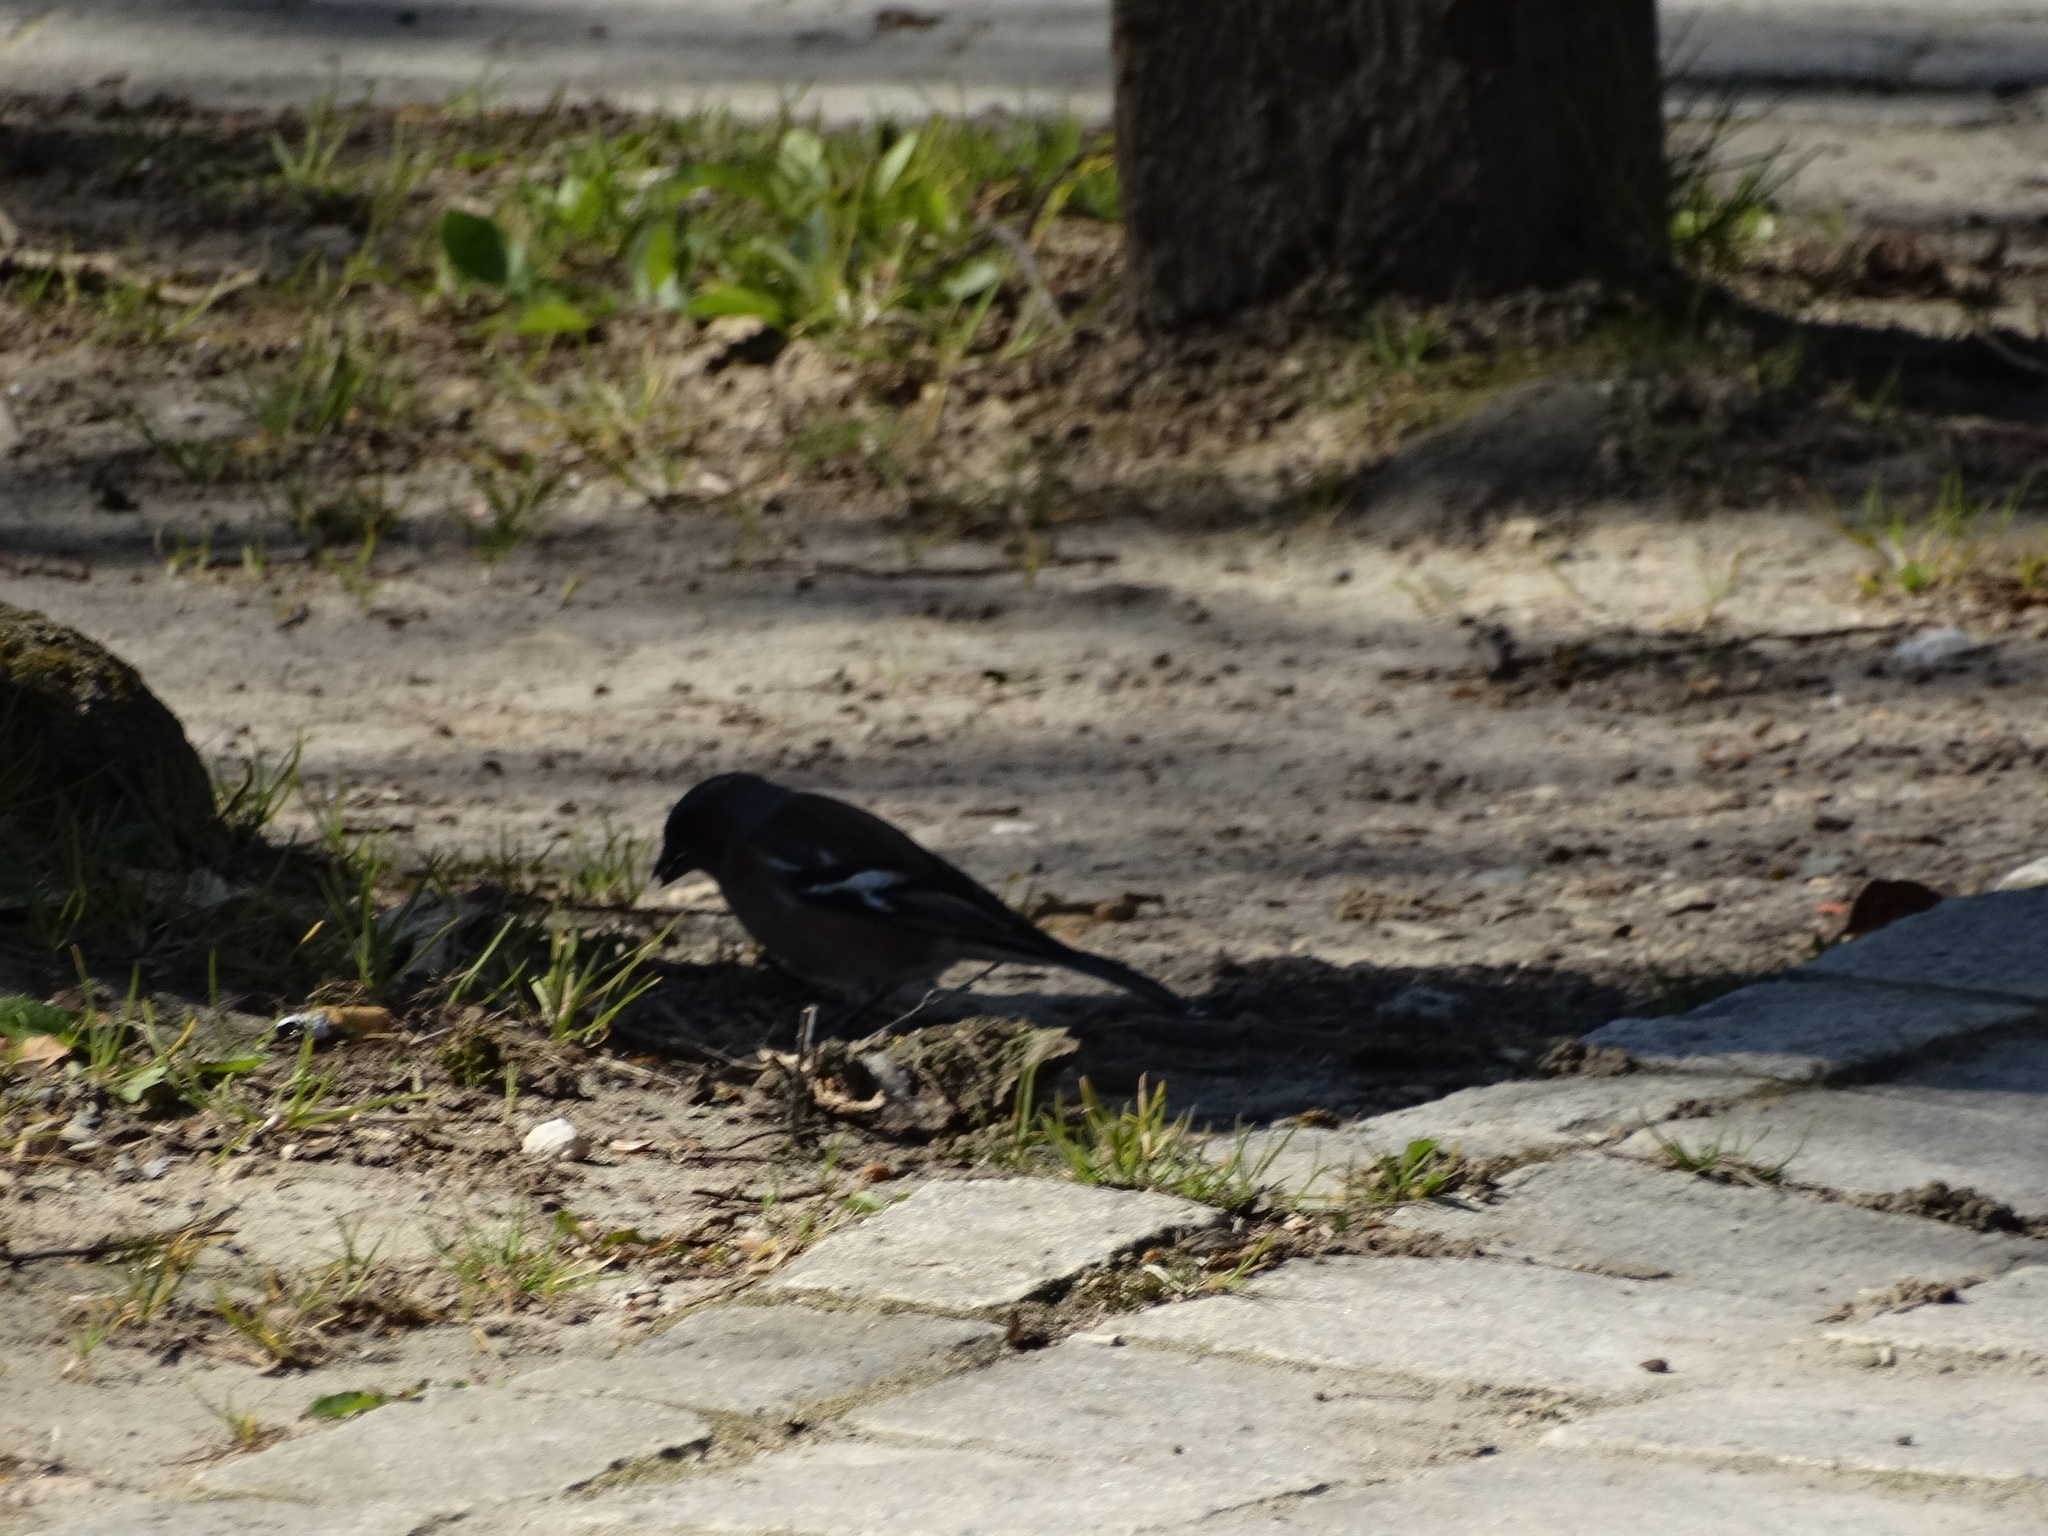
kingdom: Animalia
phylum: Chordata
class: Aves
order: Passeriformes
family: Fringillidae
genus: Fringilla
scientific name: Fringilla coelebs
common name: Common chaffinch
